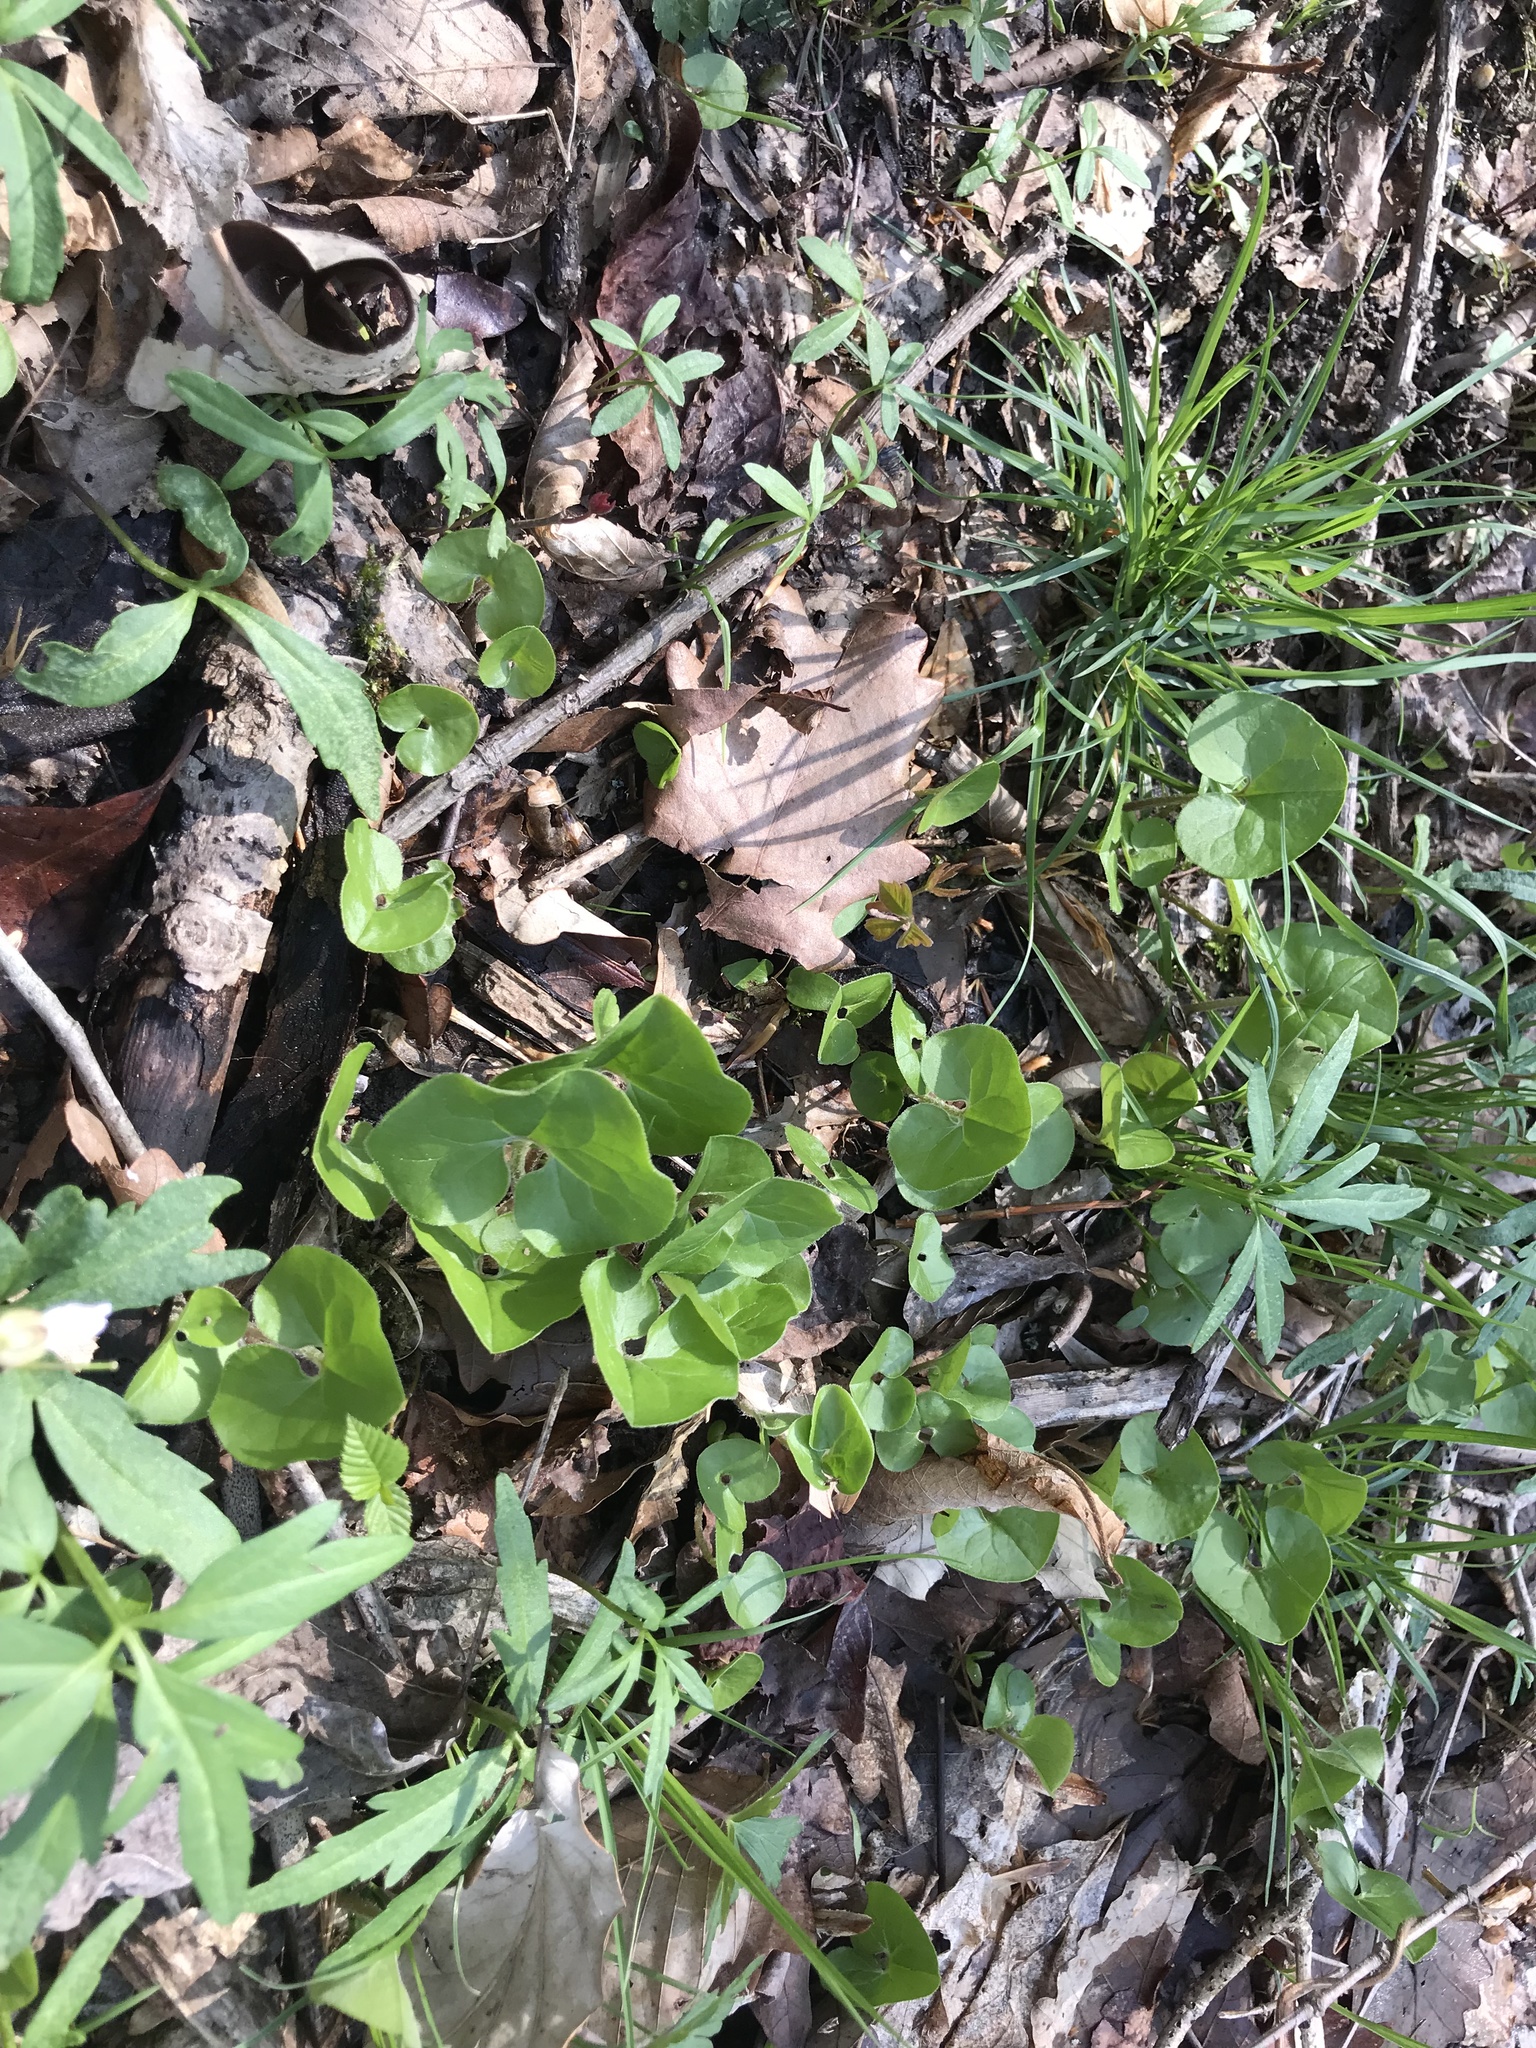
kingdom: Plantae
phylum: Tracheophyta
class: Magnoliopsida
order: Piperales
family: Aristolochiaceae
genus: Asarum
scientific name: Asarum canadense
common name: Wild ginger
